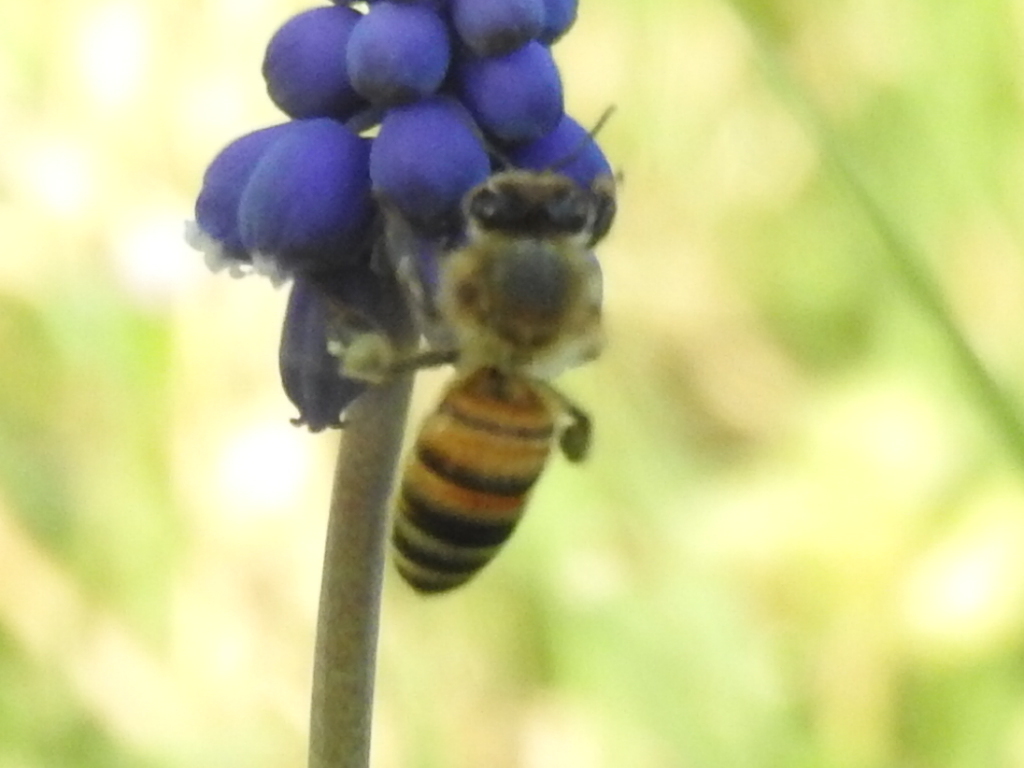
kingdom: Animalia
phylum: Arthropoda
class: Insecta
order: Hymenoptera
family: Apidae
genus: Apis
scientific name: Apis mellifera
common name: Honey bee
